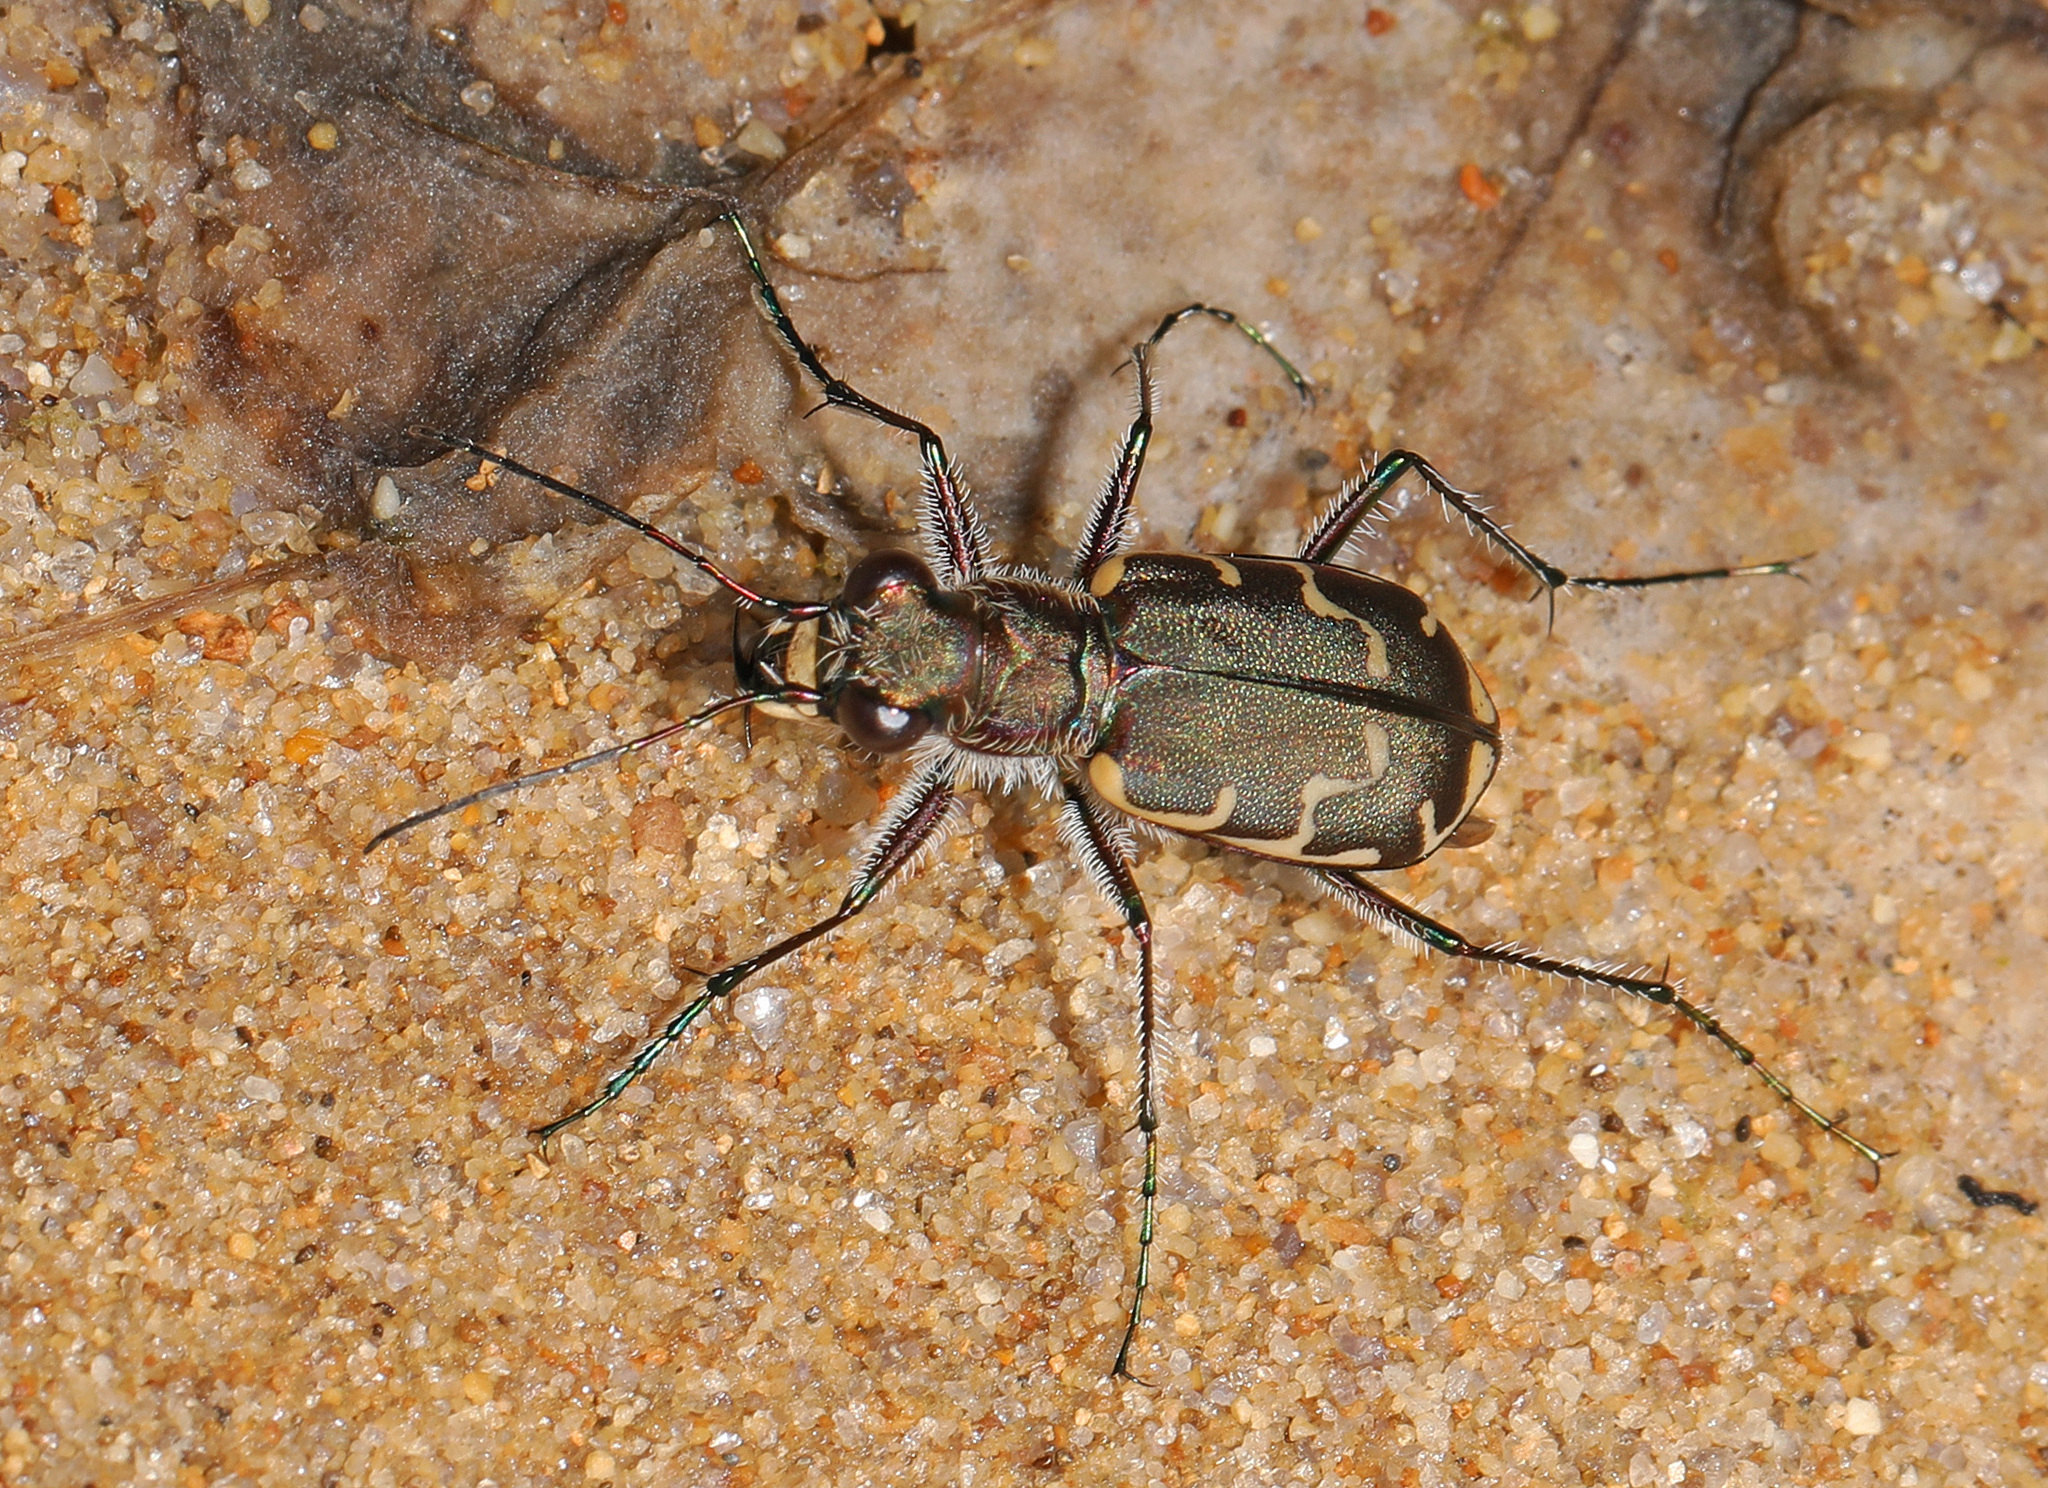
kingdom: Animalia
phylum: Arthropoda
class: Insecta
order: Coleoptera
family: Carabidae
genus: Cicindela
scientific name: Cicindela repanda
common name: Bronzed tiger beetle
